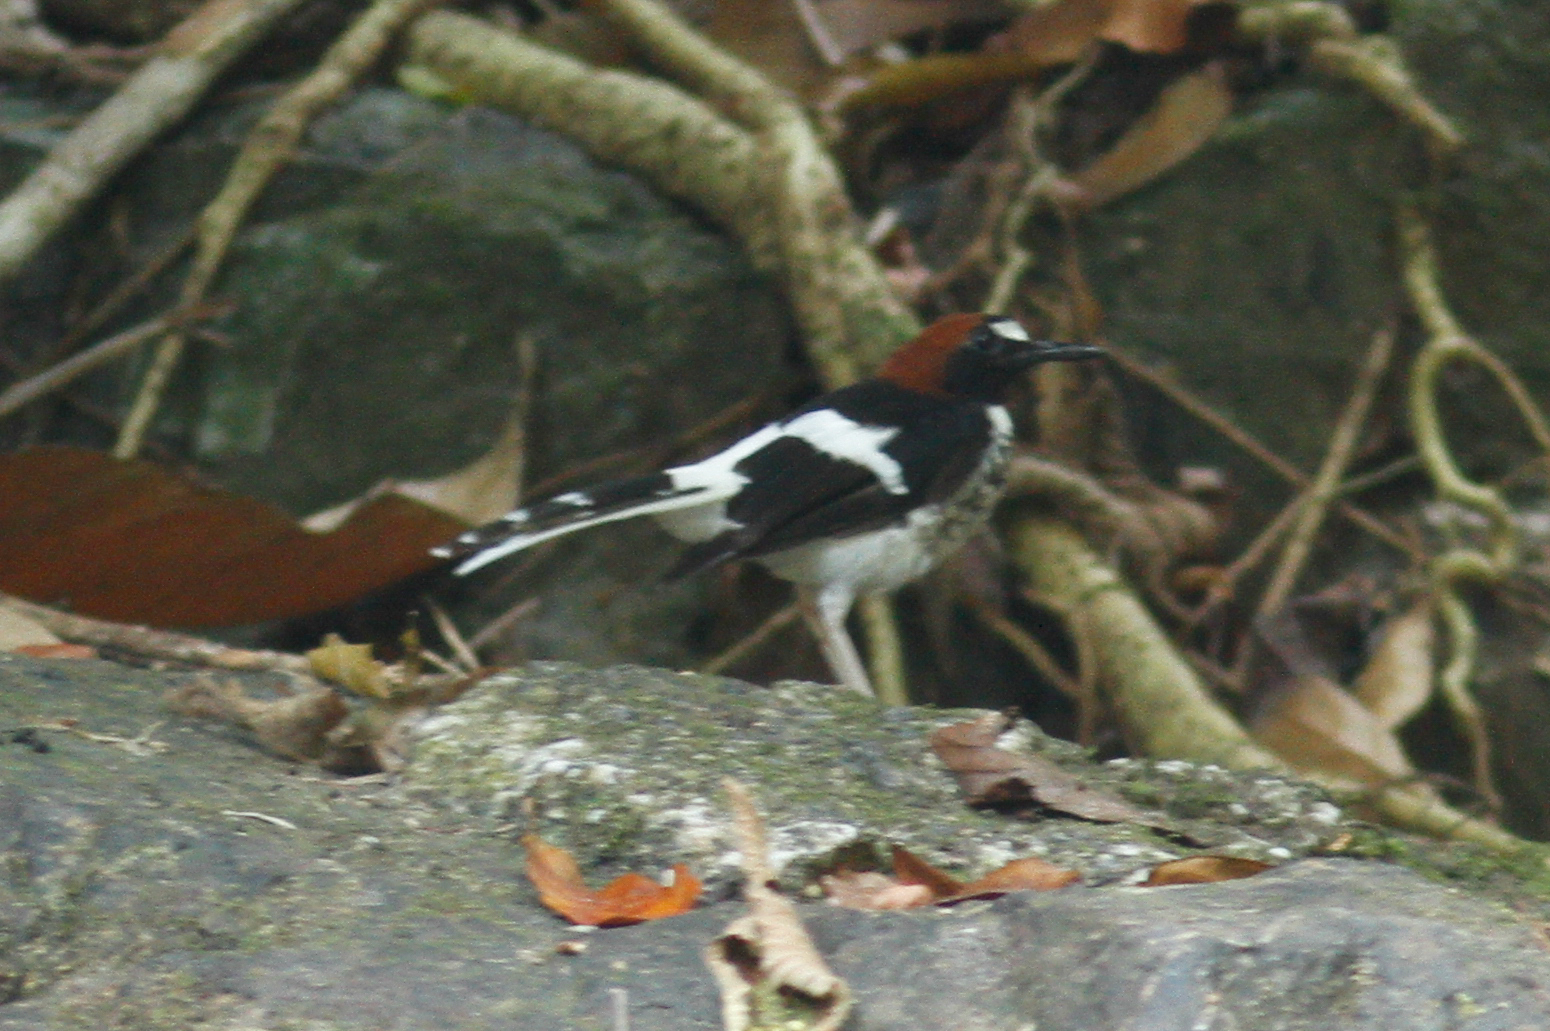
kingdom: Animalia
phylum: Chordata
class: Aves
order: Passeriformes
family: Muscicapidae
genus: Enicurus
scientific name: Enicurus ruficapillus
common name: Chestnut-naped forktail
